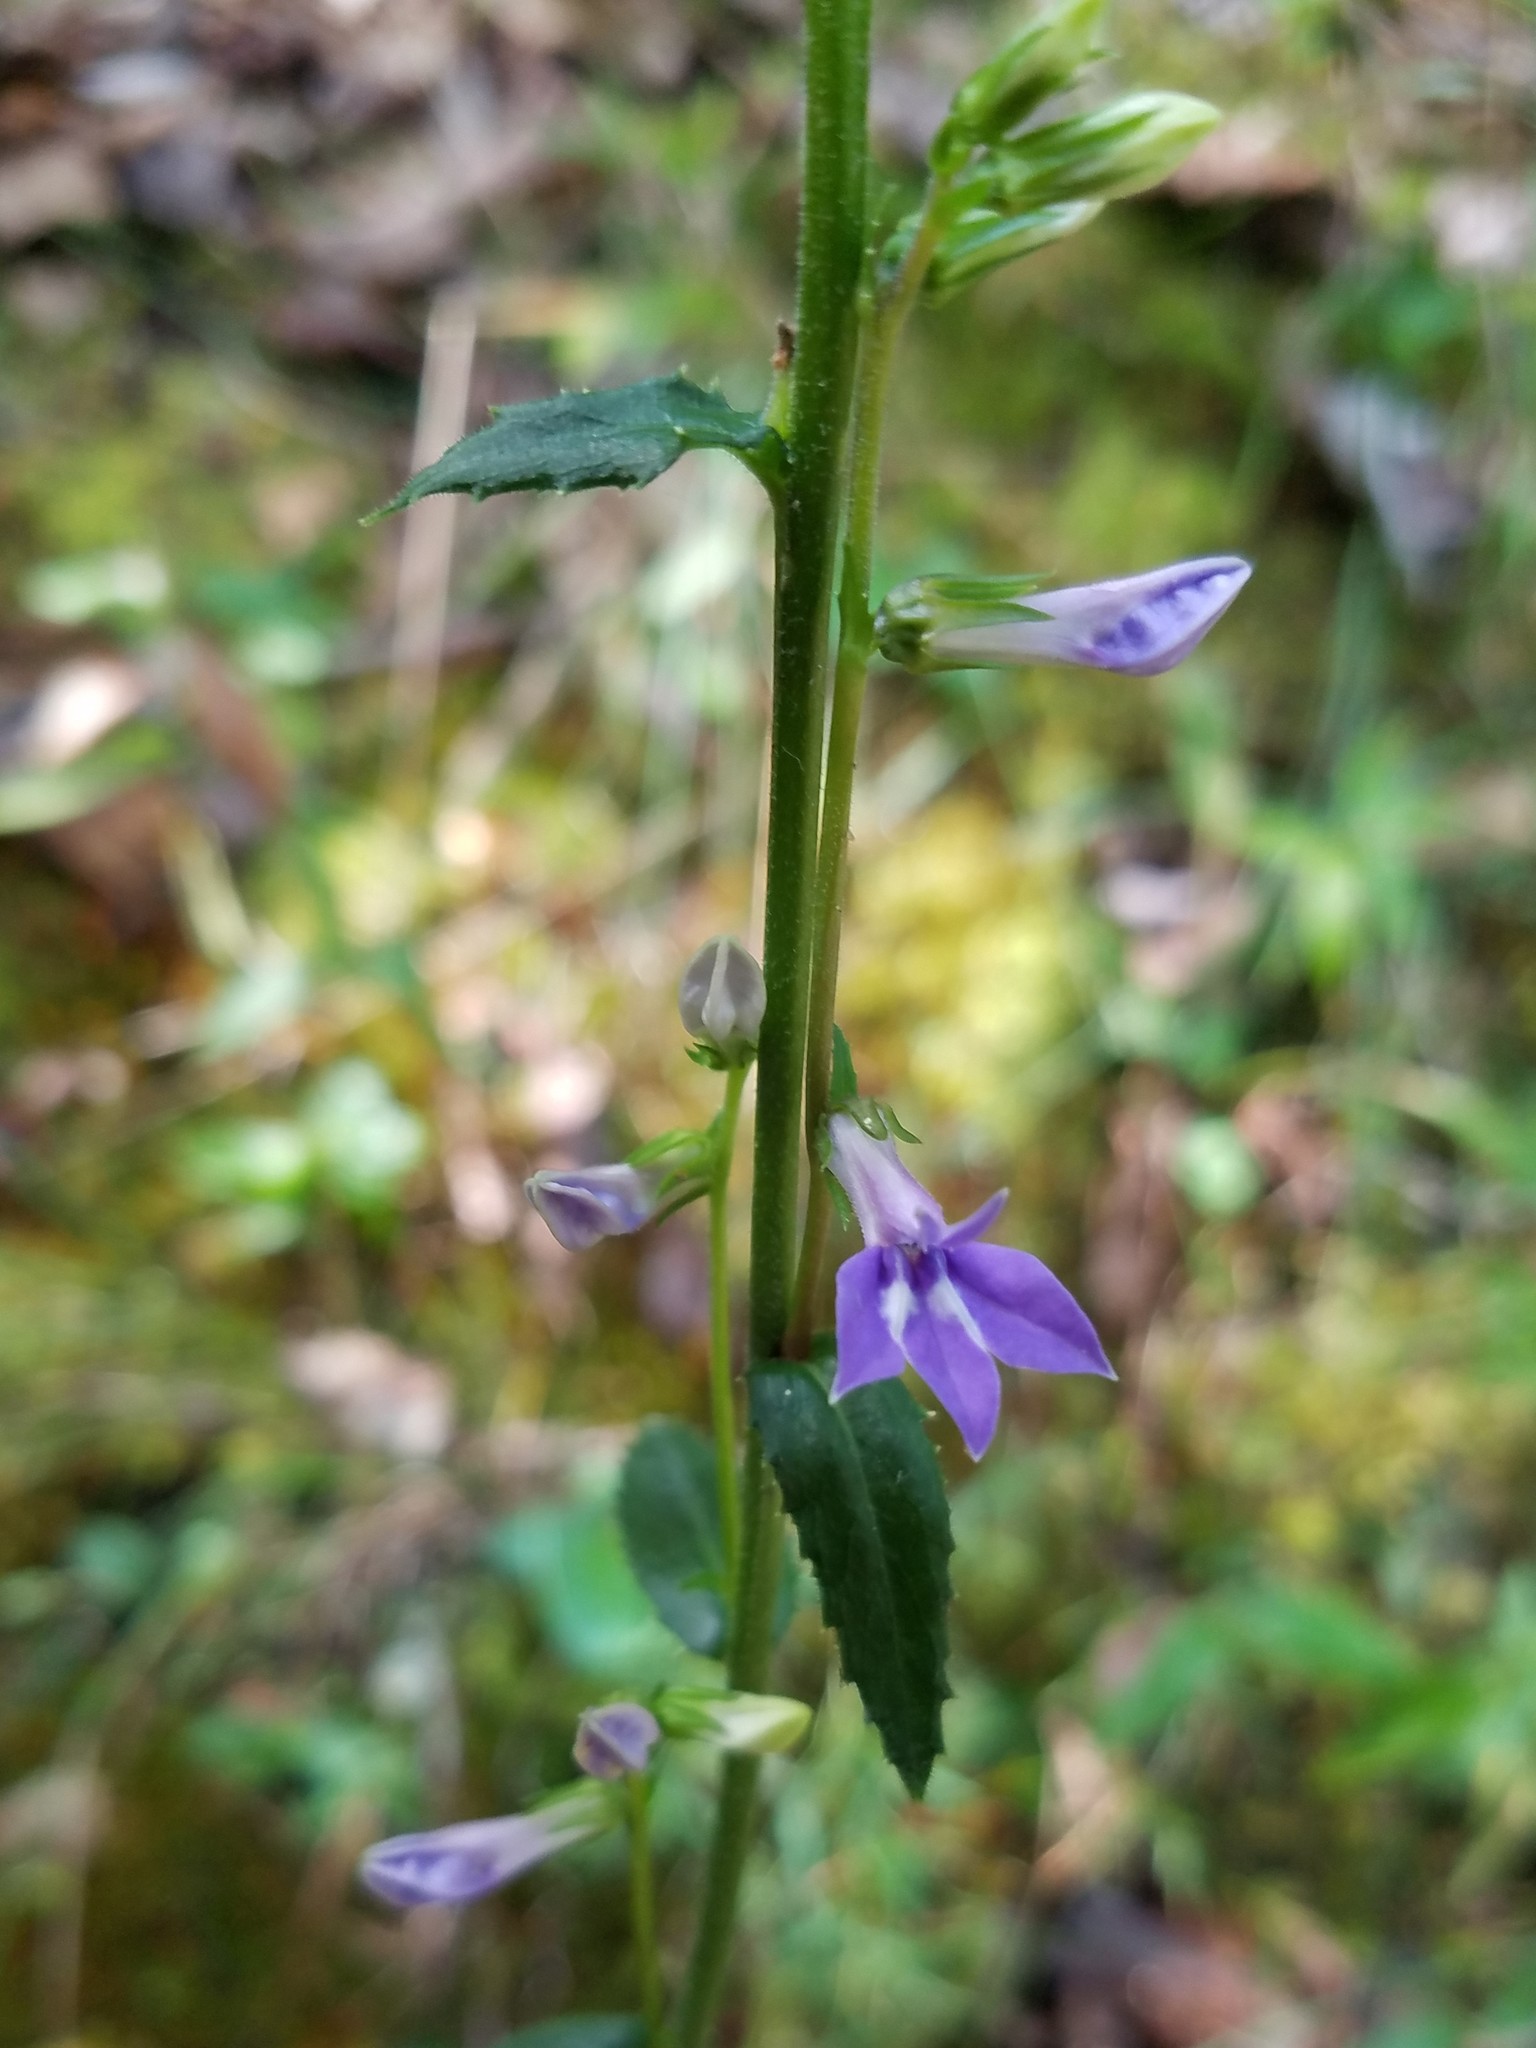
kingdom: Plantae
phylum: Tracheophyta
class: Magnoliopsida
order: Asterales
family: Campanulaceae
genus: Lobelia
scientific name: Lobelia puberula
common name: Purple dewdrop
